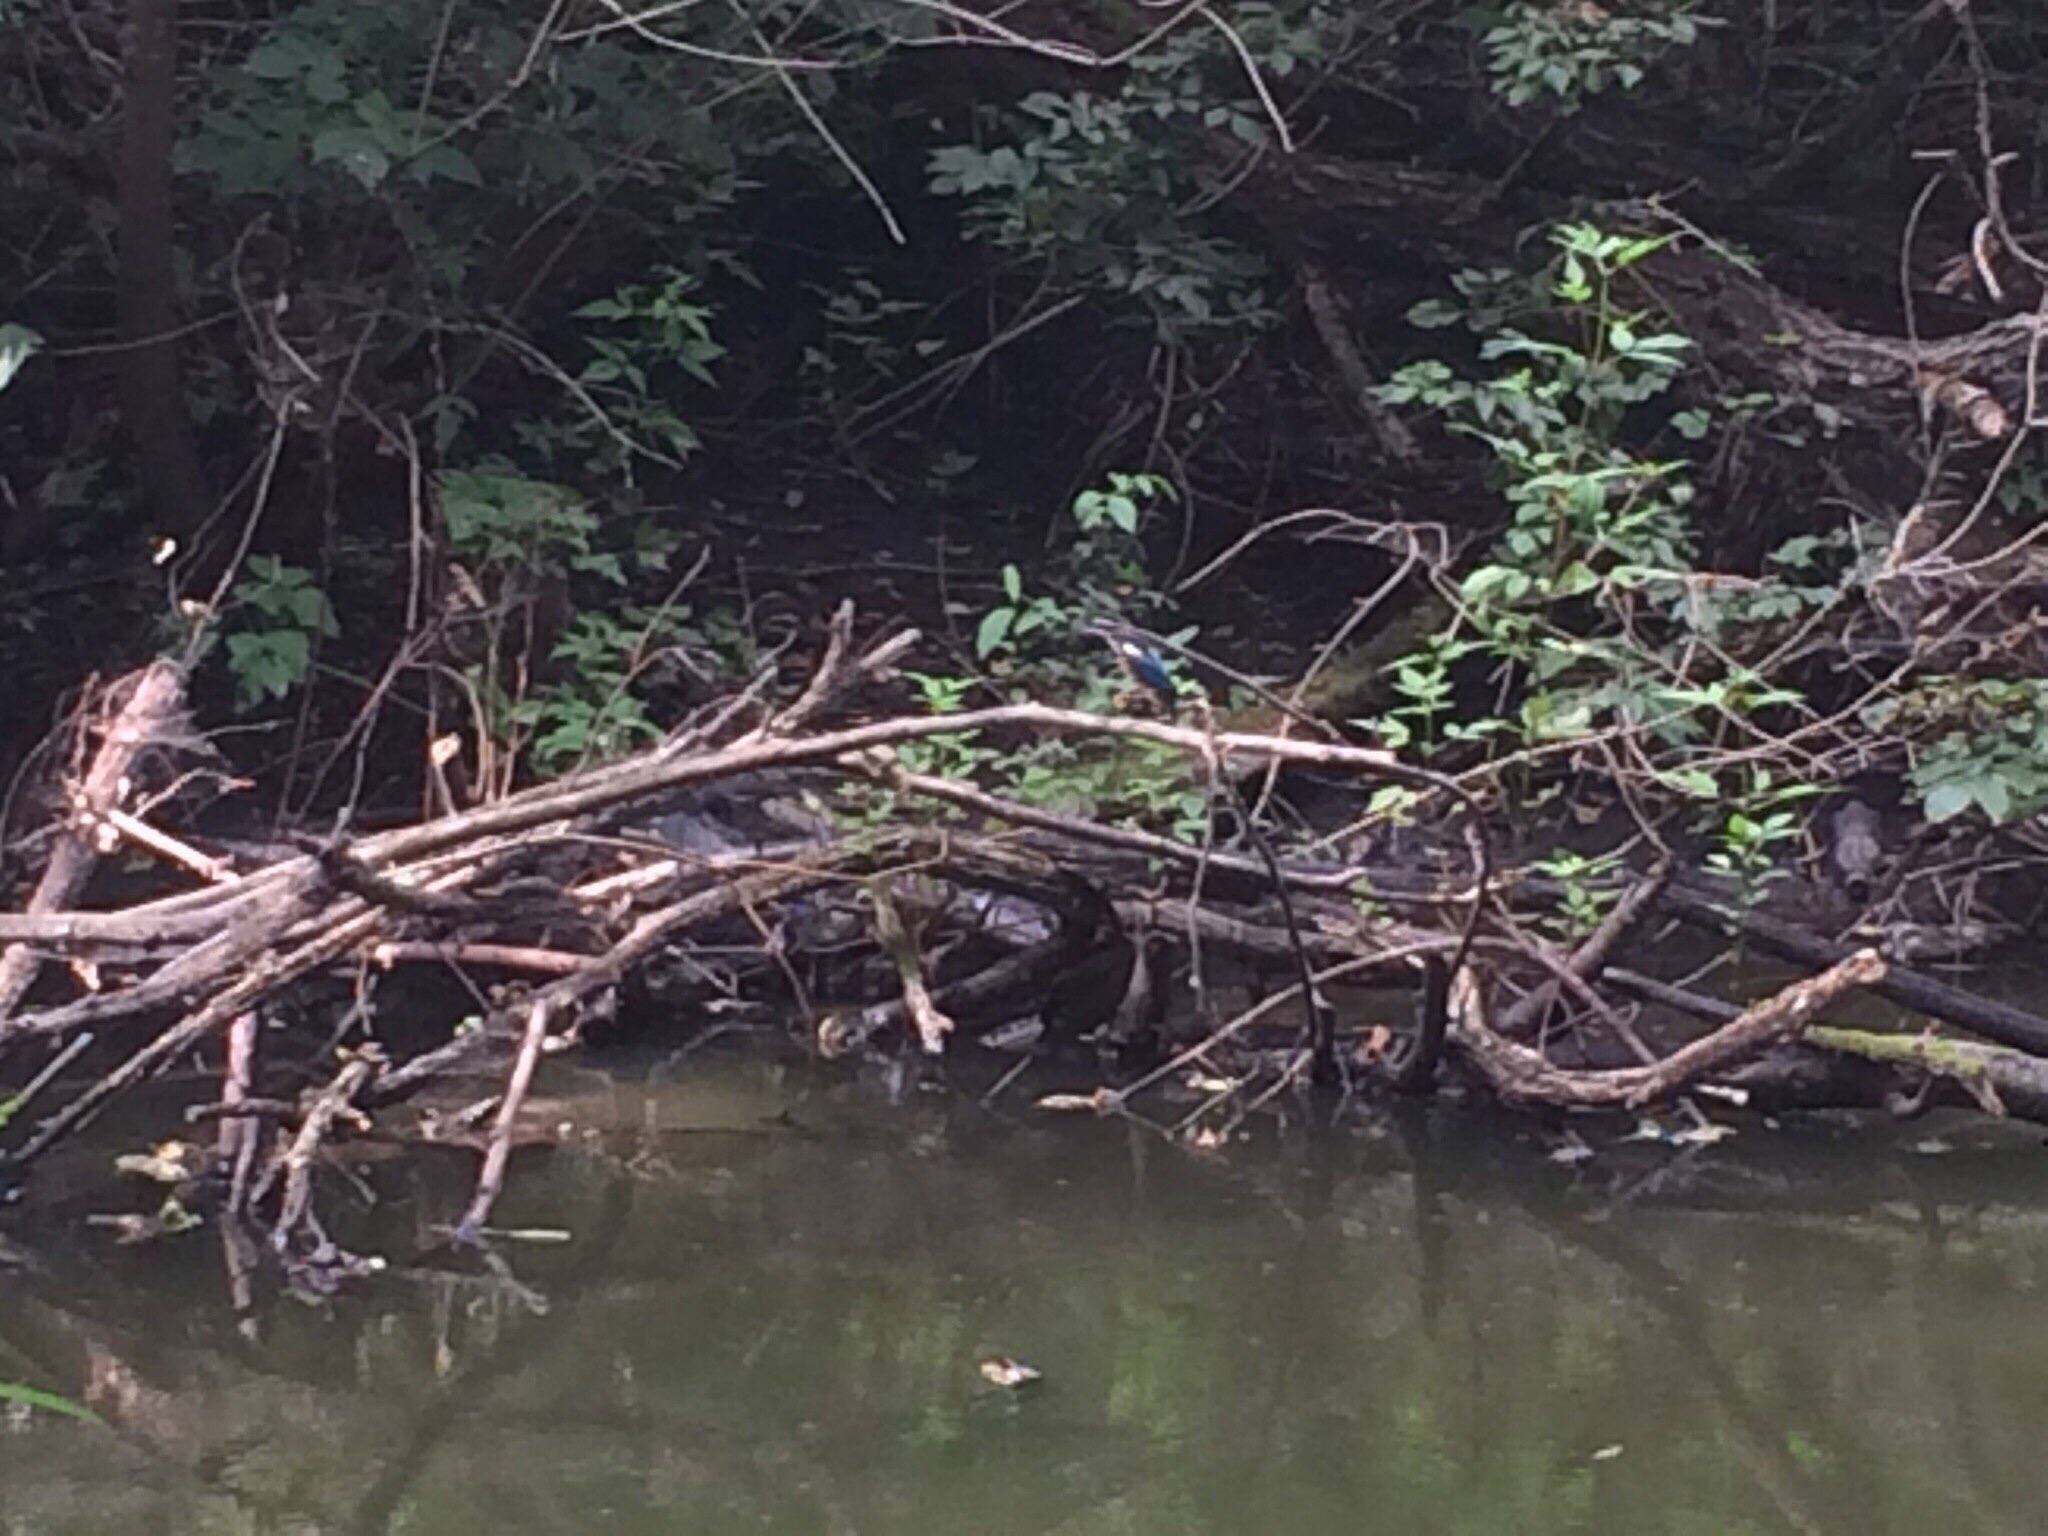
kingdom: Animalia
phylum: Chordata
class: Aves
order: Coraciiformes
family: Alcedinidae
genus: Alcedo
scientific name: Alcedo atthis
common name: Common kingfisher
